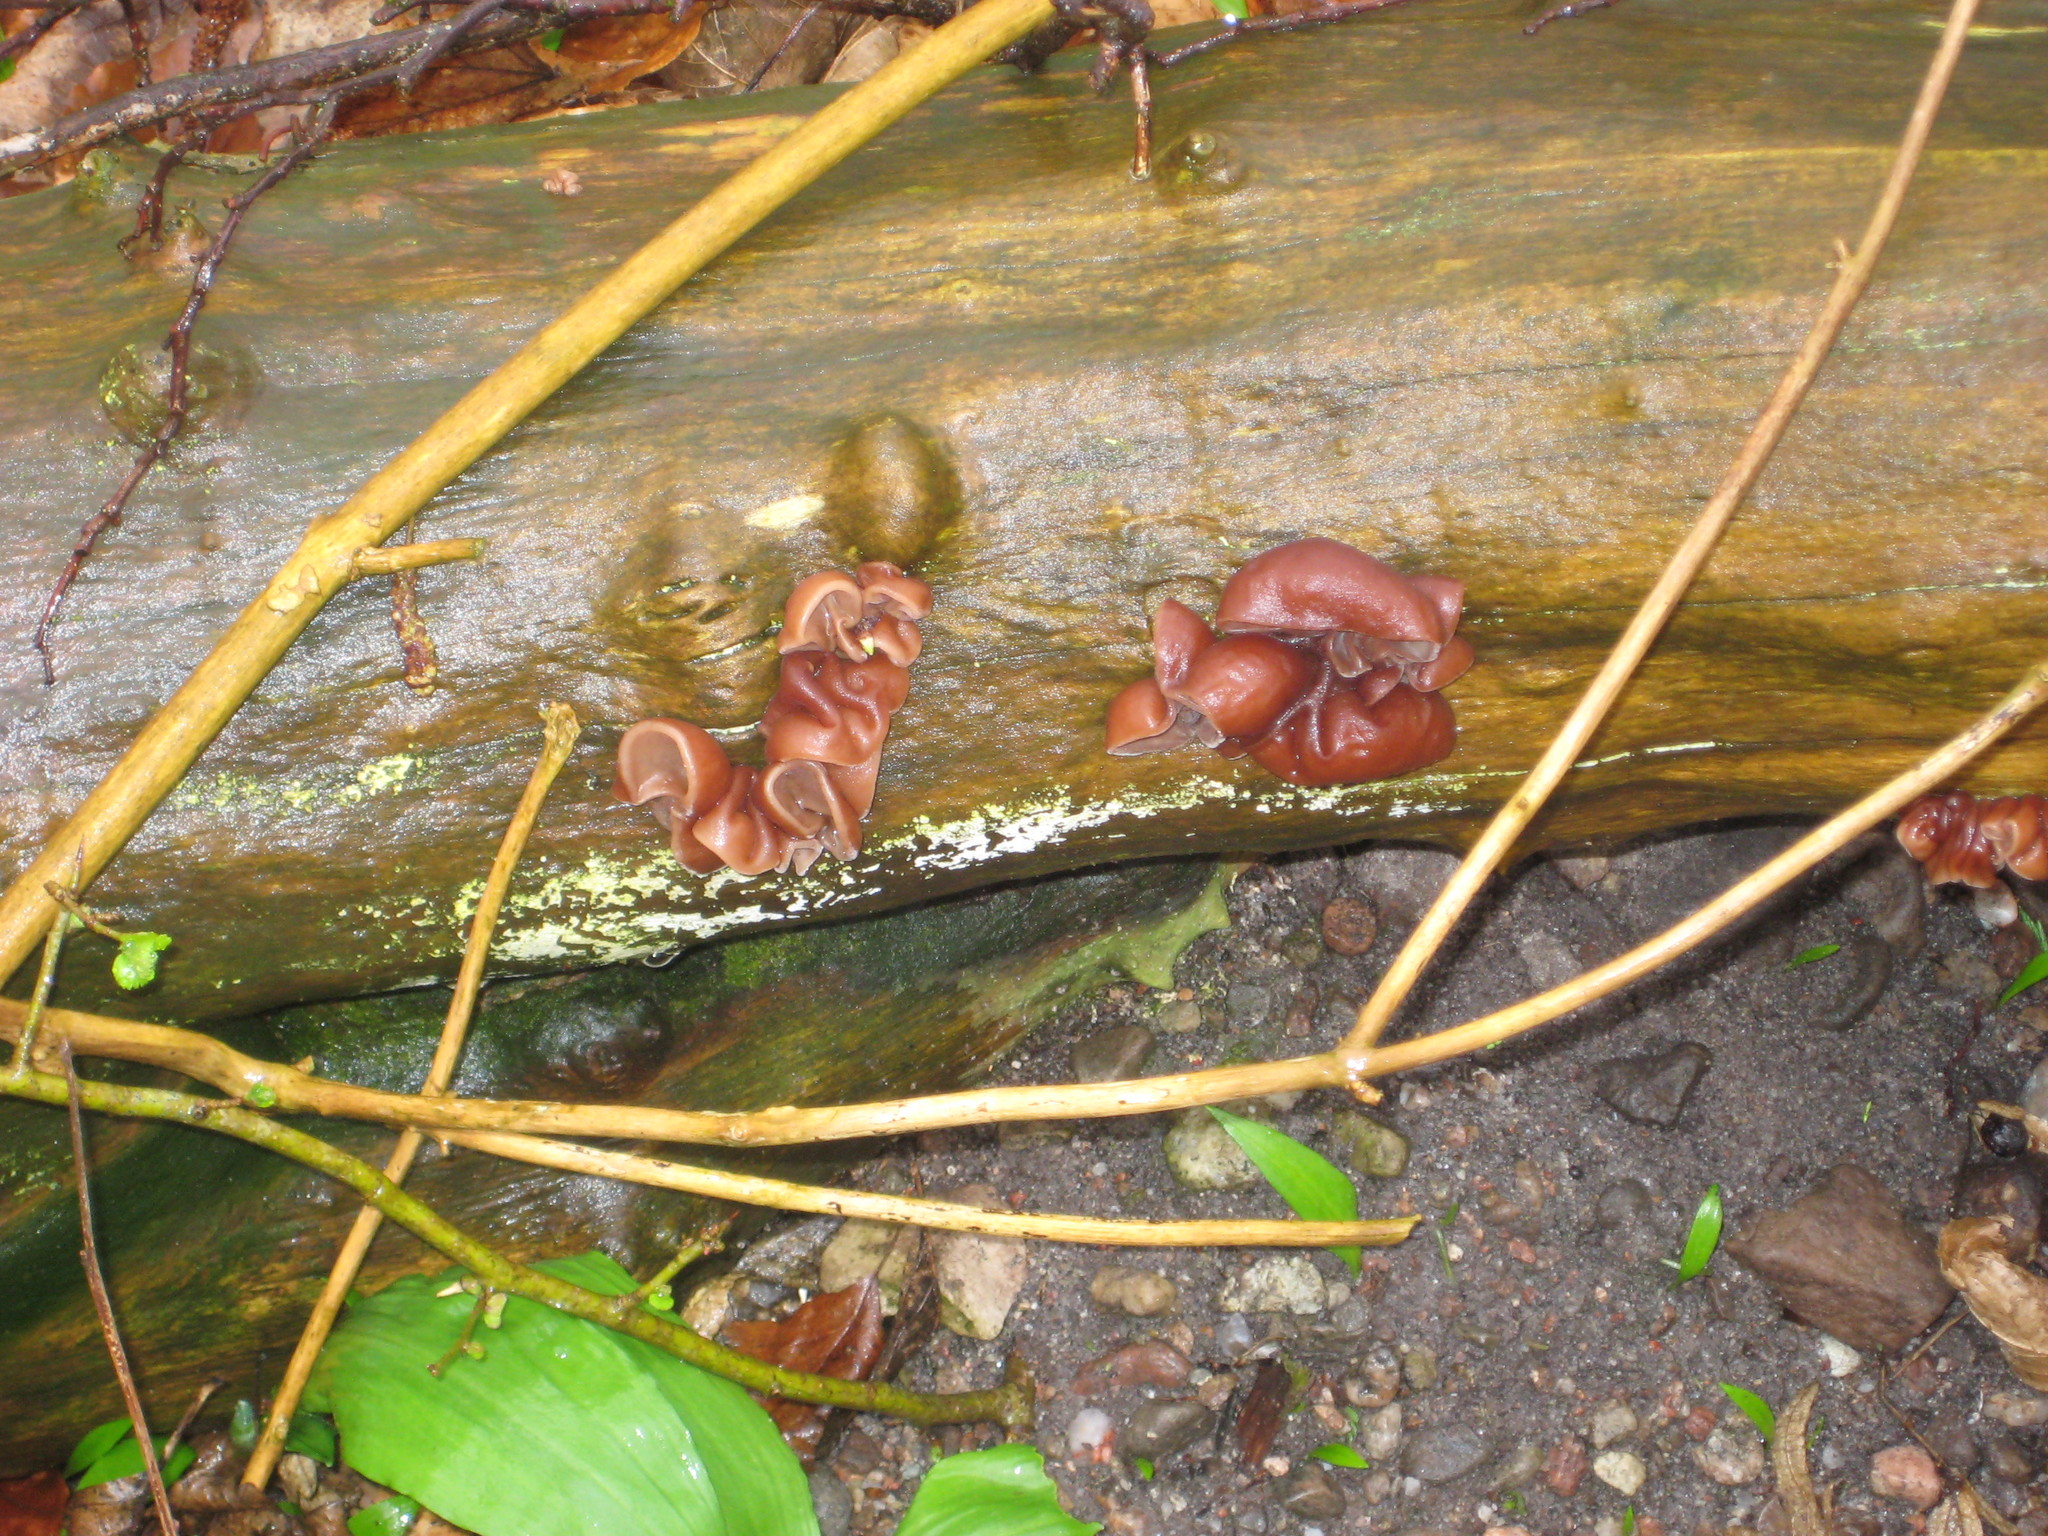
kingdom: Fungi
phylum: Basidiomycota
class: Agaricomycetes
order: Auriculariales
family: Auriculariaceae
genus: Auricularia
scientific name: Auricularia auricula-judae
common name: Jelly ear
